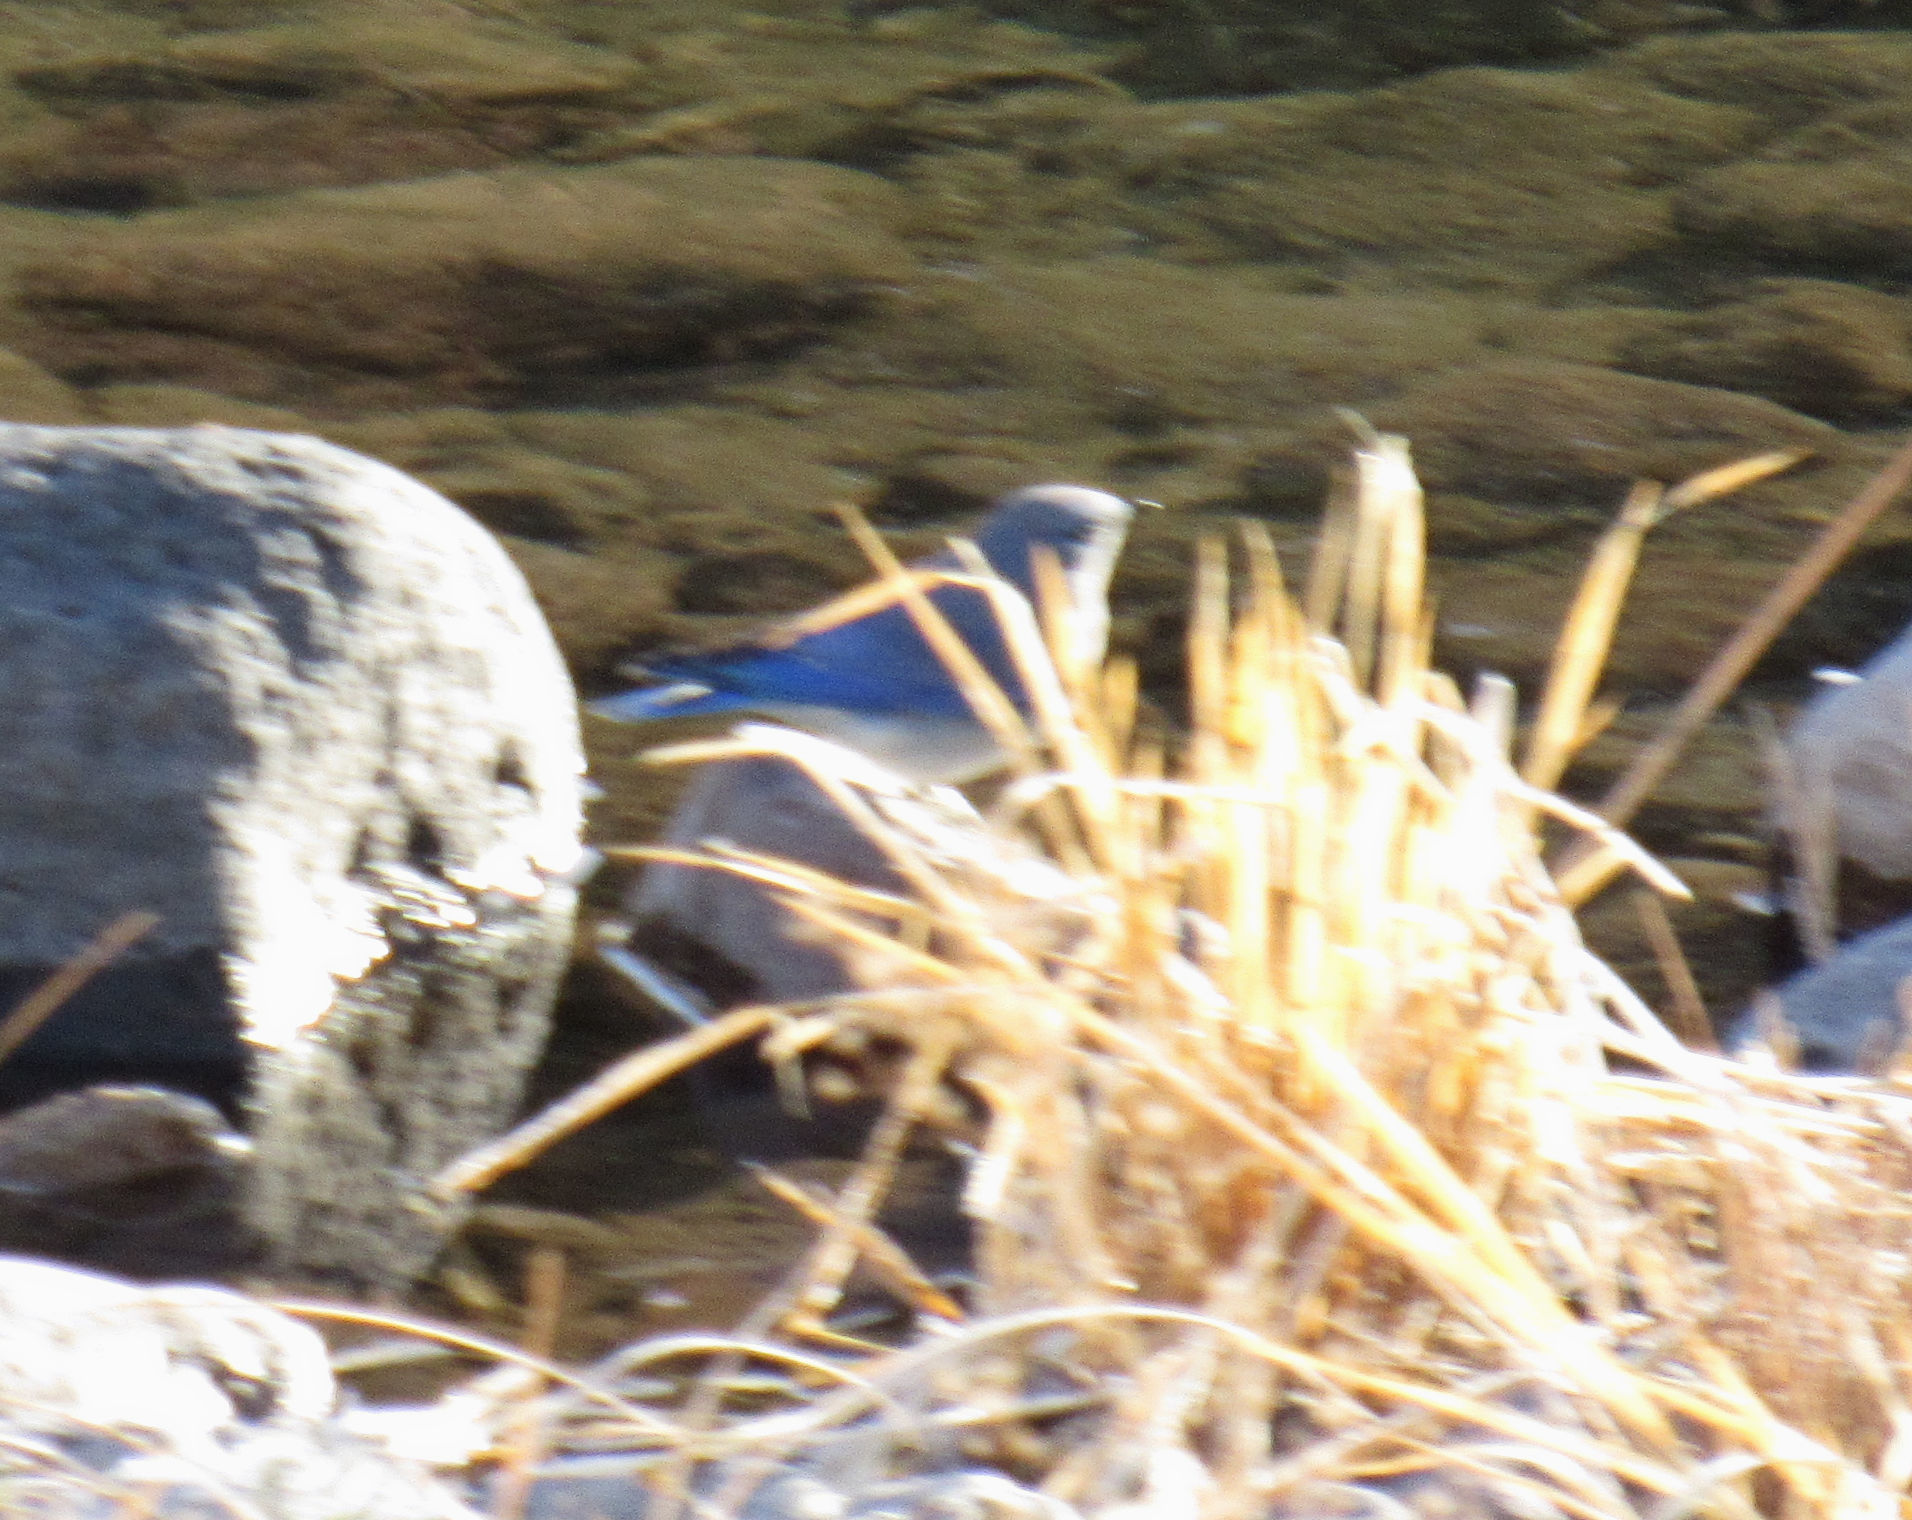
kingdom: Animalia
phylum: Chordata
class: Aves
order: Passeriformes
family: Turdidae
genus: Sialia
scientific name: Sialia currucoides
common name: Mountain bluebird
